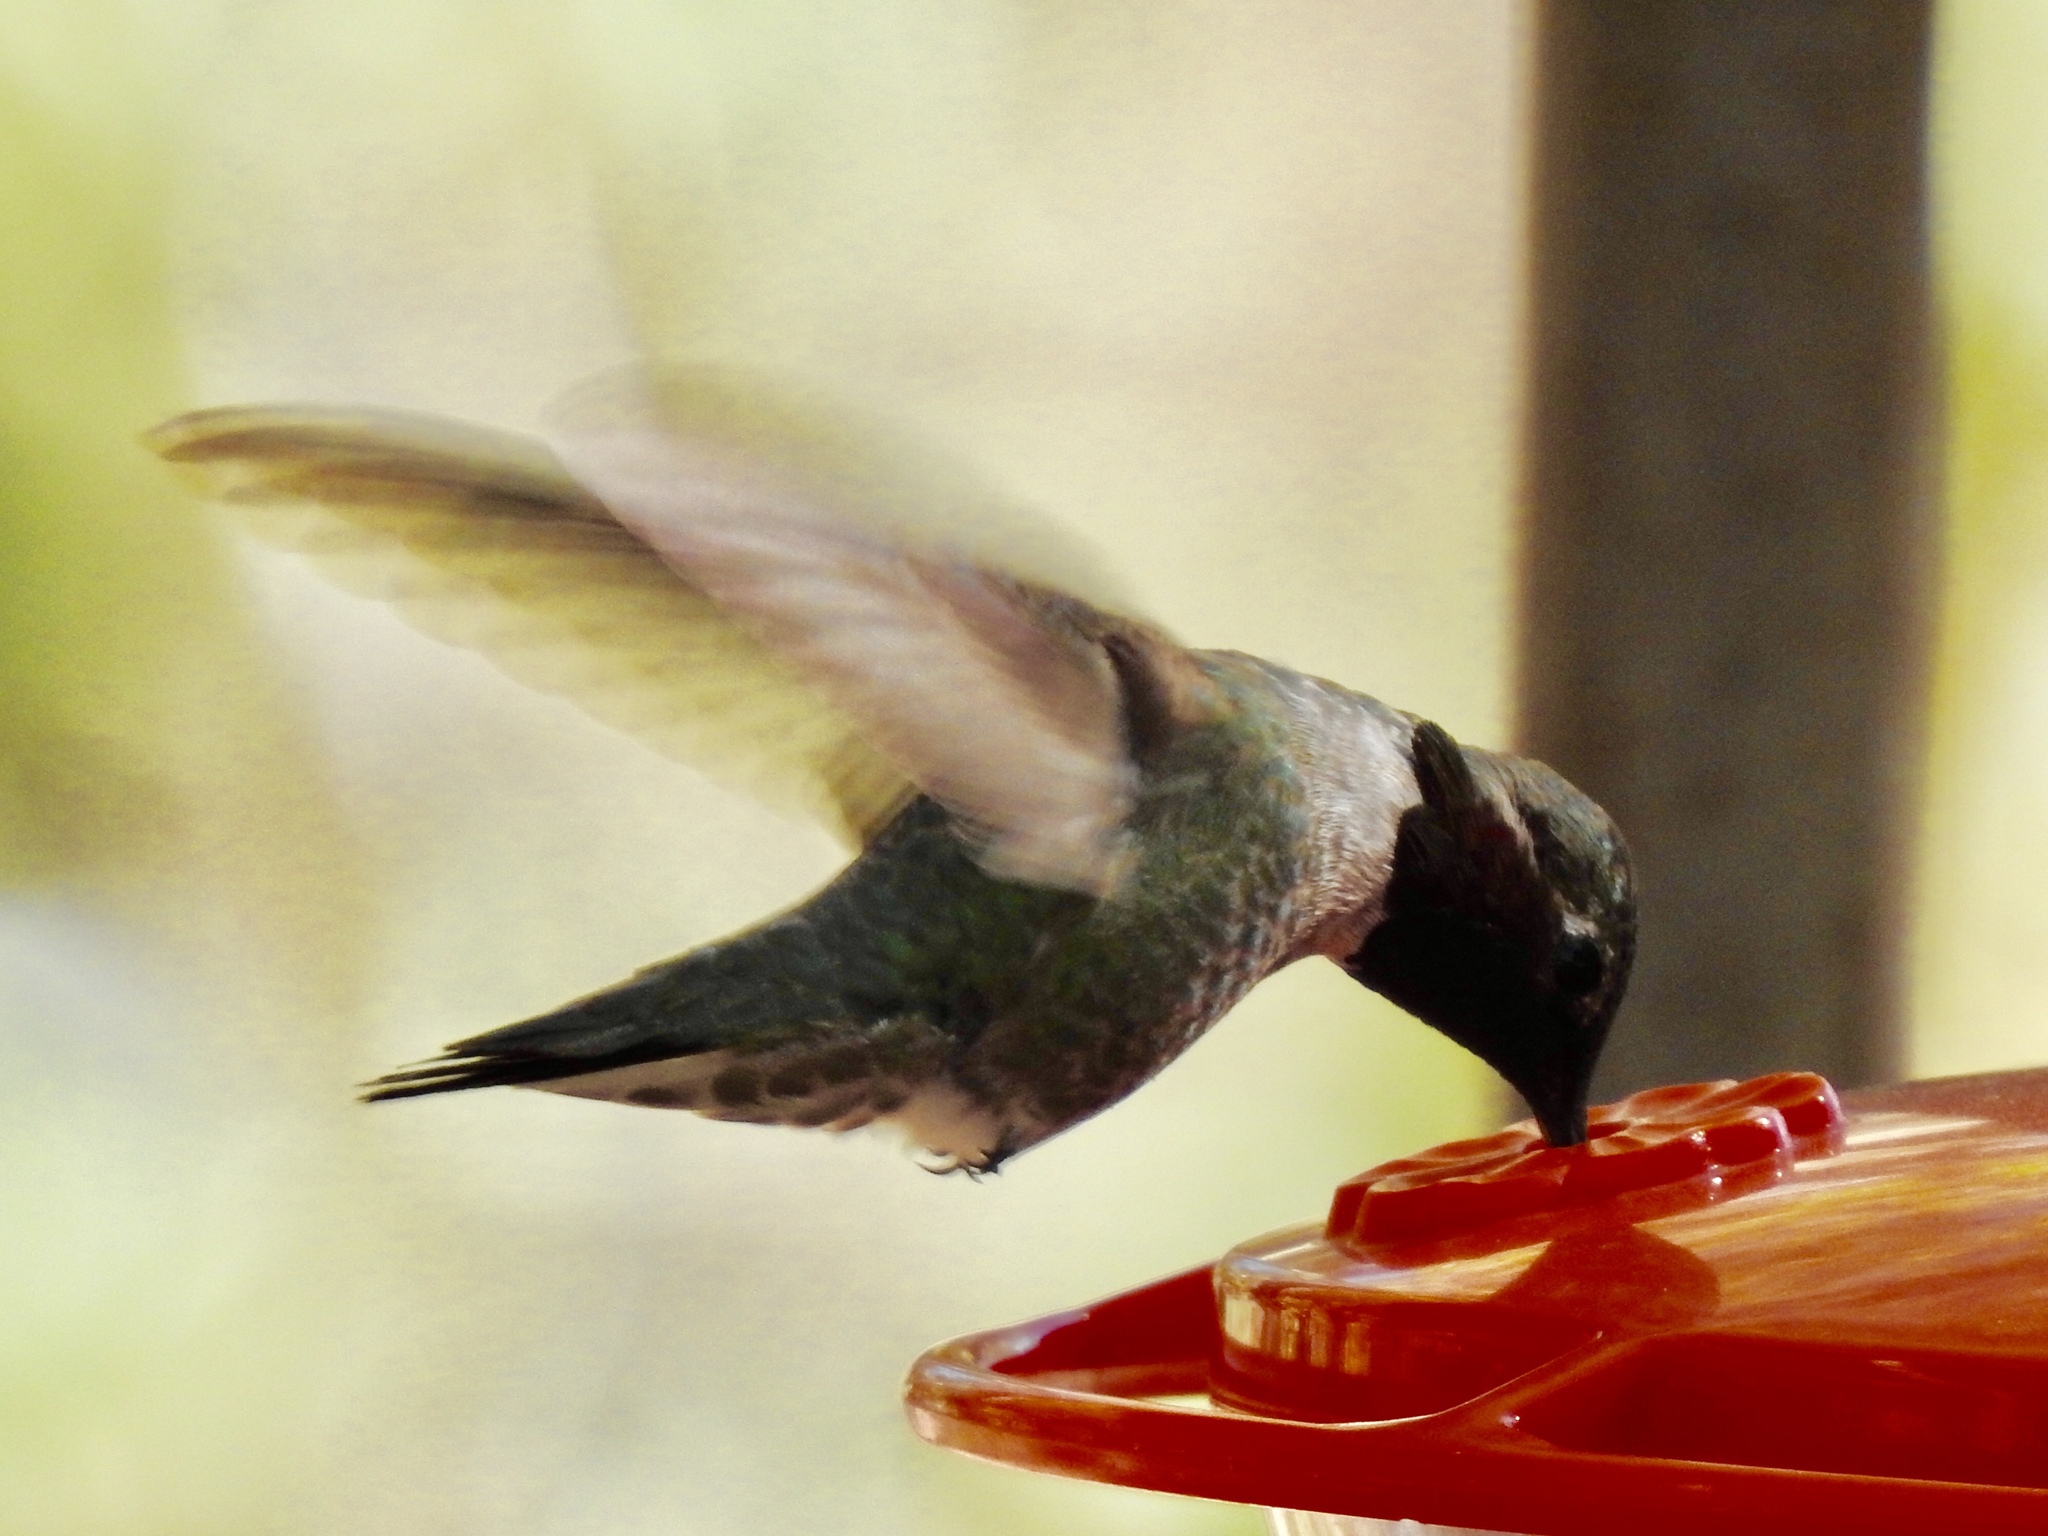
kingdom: Animalia
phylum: Chordata
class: Aves
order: Apodiformes
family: Trochilidae
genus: Calypte
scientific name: Calypte anna
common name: Anna's hummingbird
